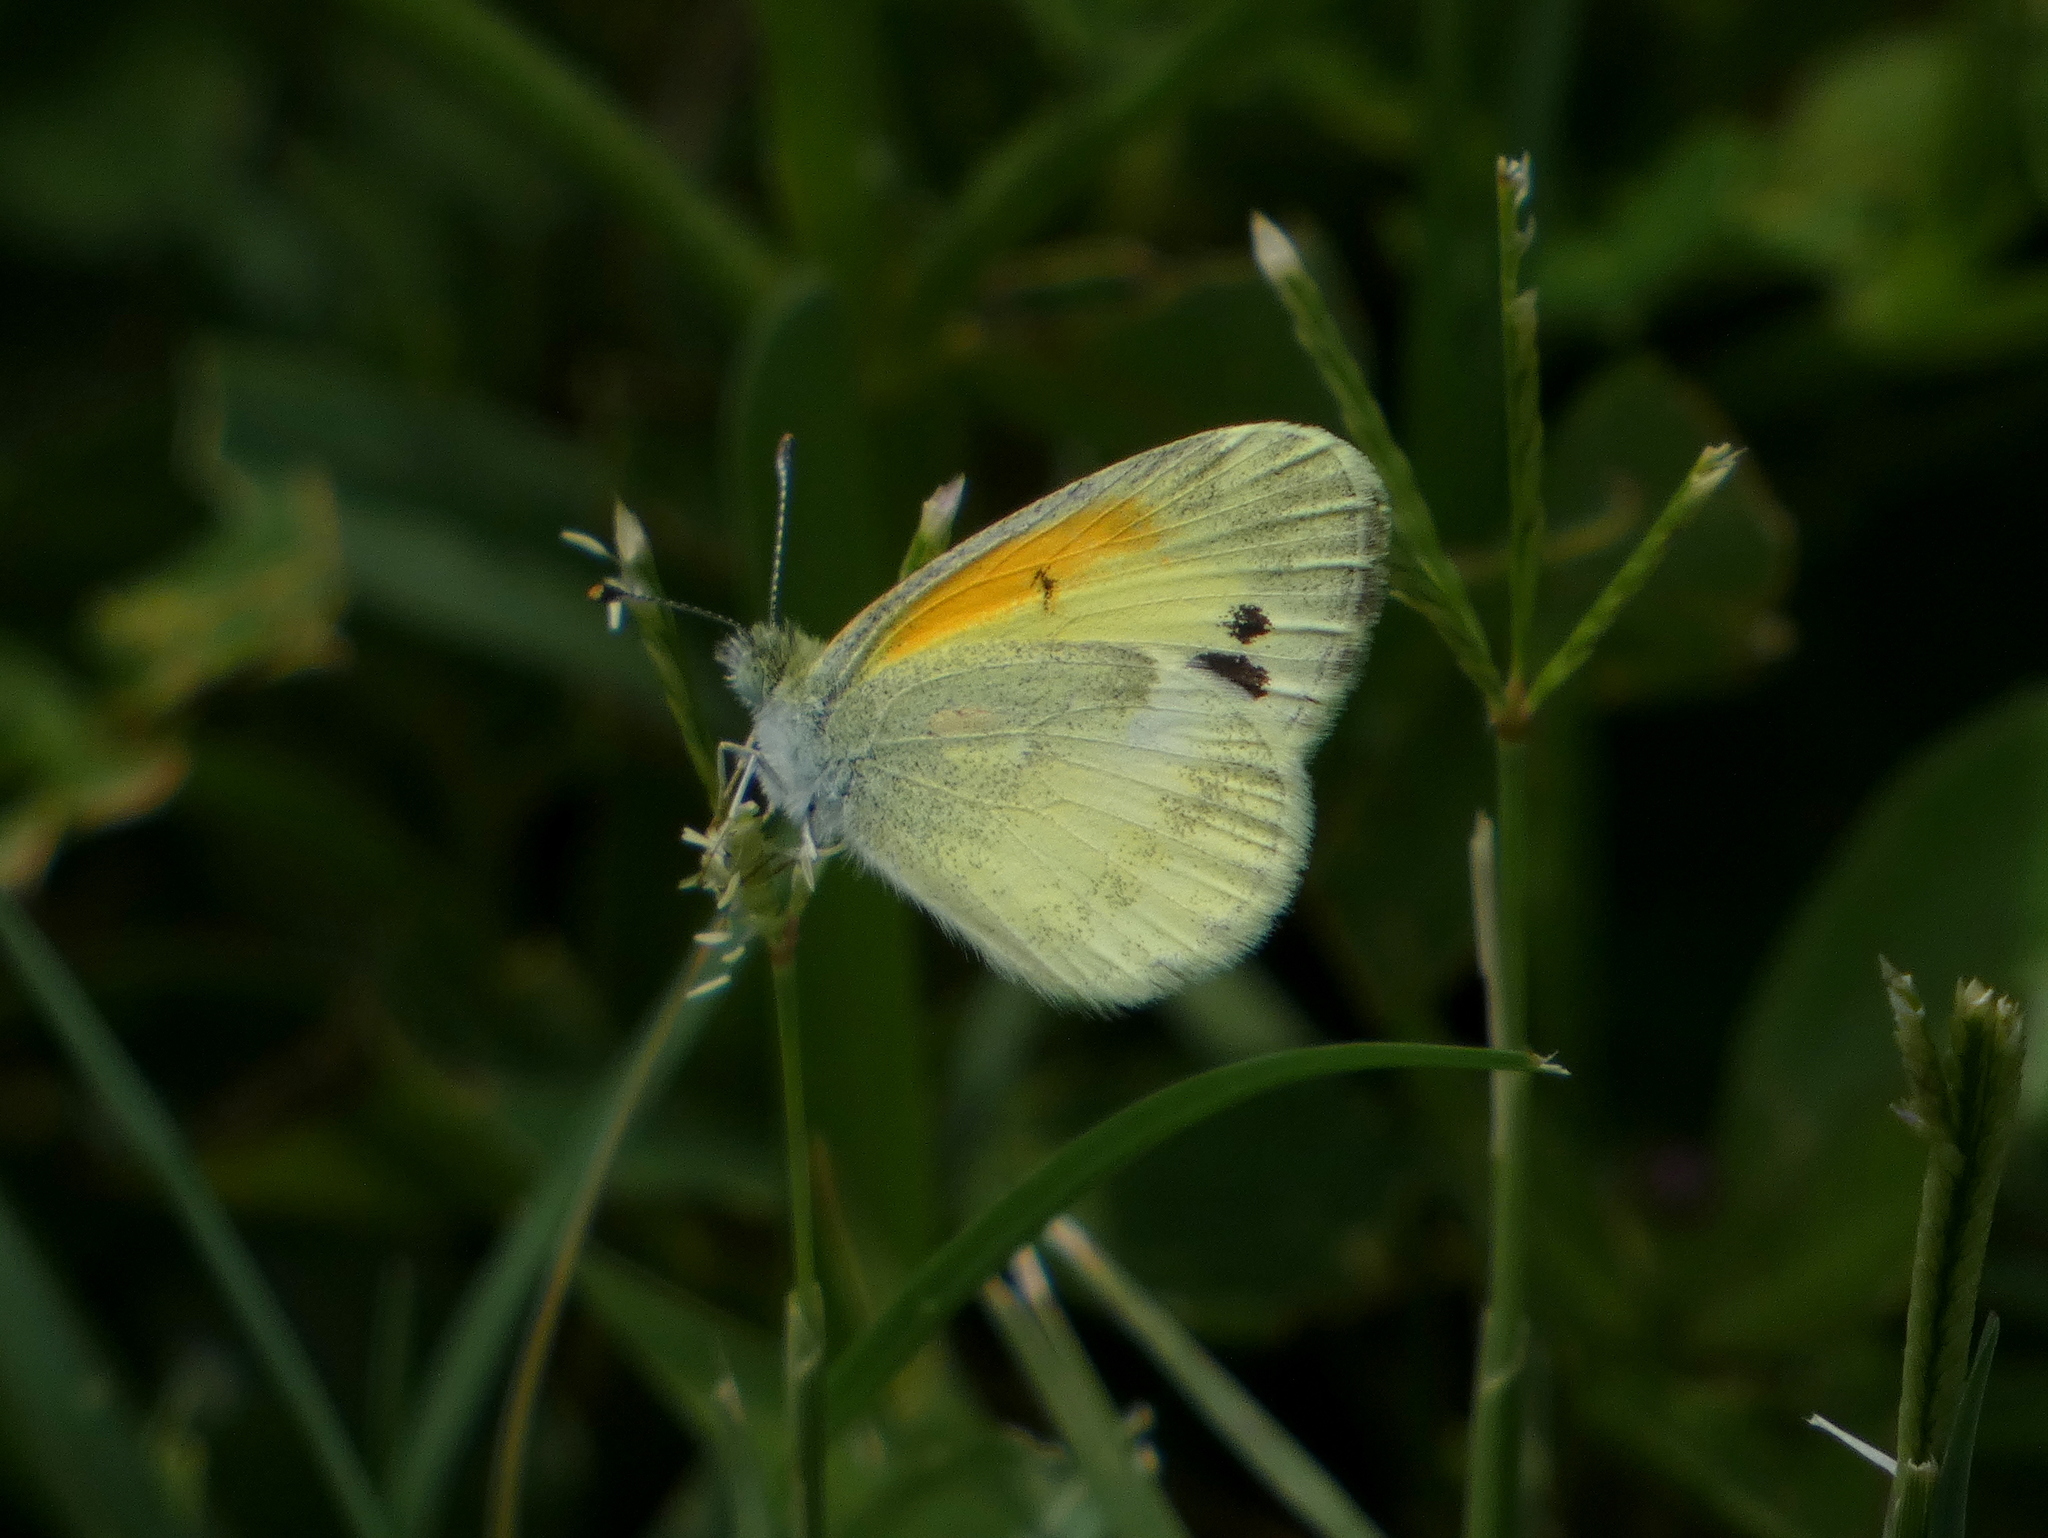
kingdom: Animalia
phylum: Arthropoda
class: Insecta
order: Lepidoptera
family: Pieridae
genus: Nathalis
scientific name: Nathalis iole
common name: Dainty sulphur
